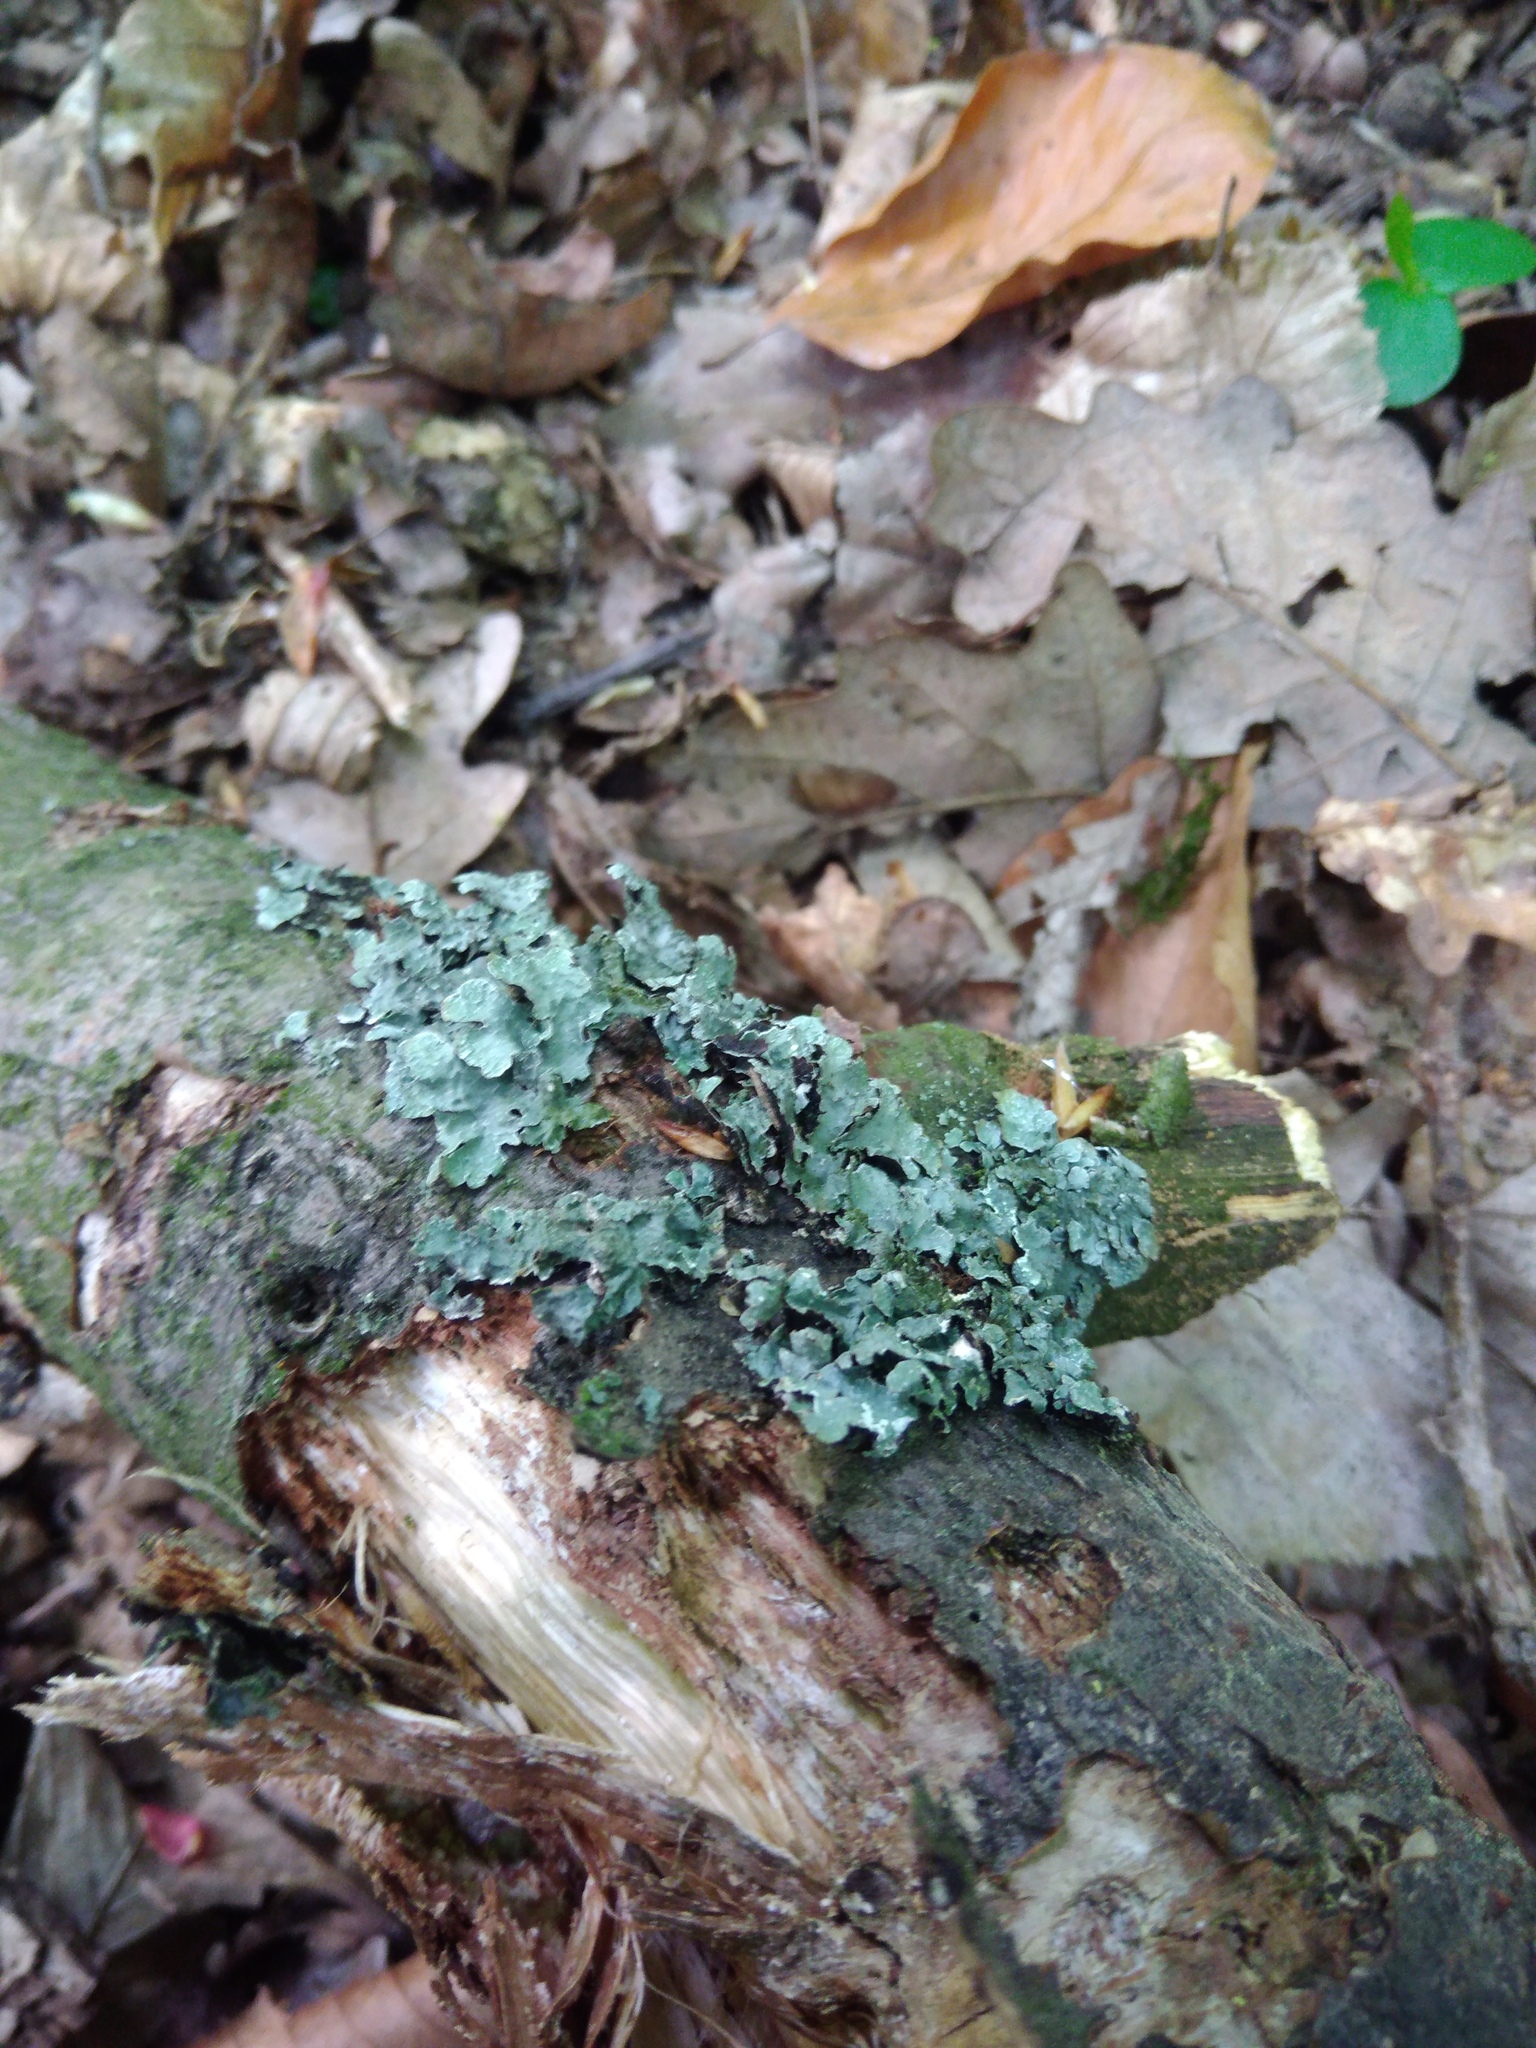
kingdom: Fungi
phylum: Ascomycota
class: Lecanoromycetes
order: Lecanorales
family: Parmeliaceae
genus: Parmelia
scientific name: Parmelia sulcata
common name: Netted shield lichen
